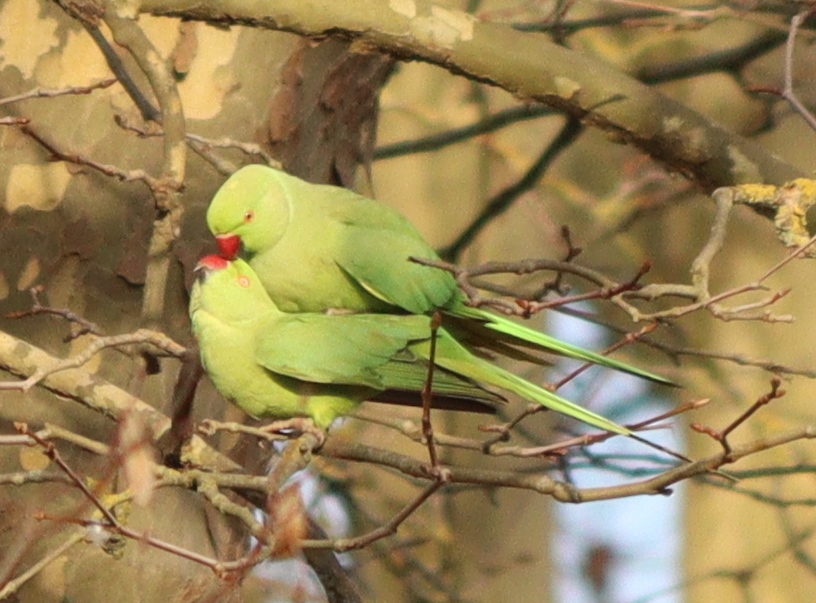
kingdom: Animalia
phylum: Chordata
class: Aves
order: Psittaciformes
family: Psittacidae
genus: Psittacula
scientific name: Psittacula krameri
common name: Rose-ringed parakeet
